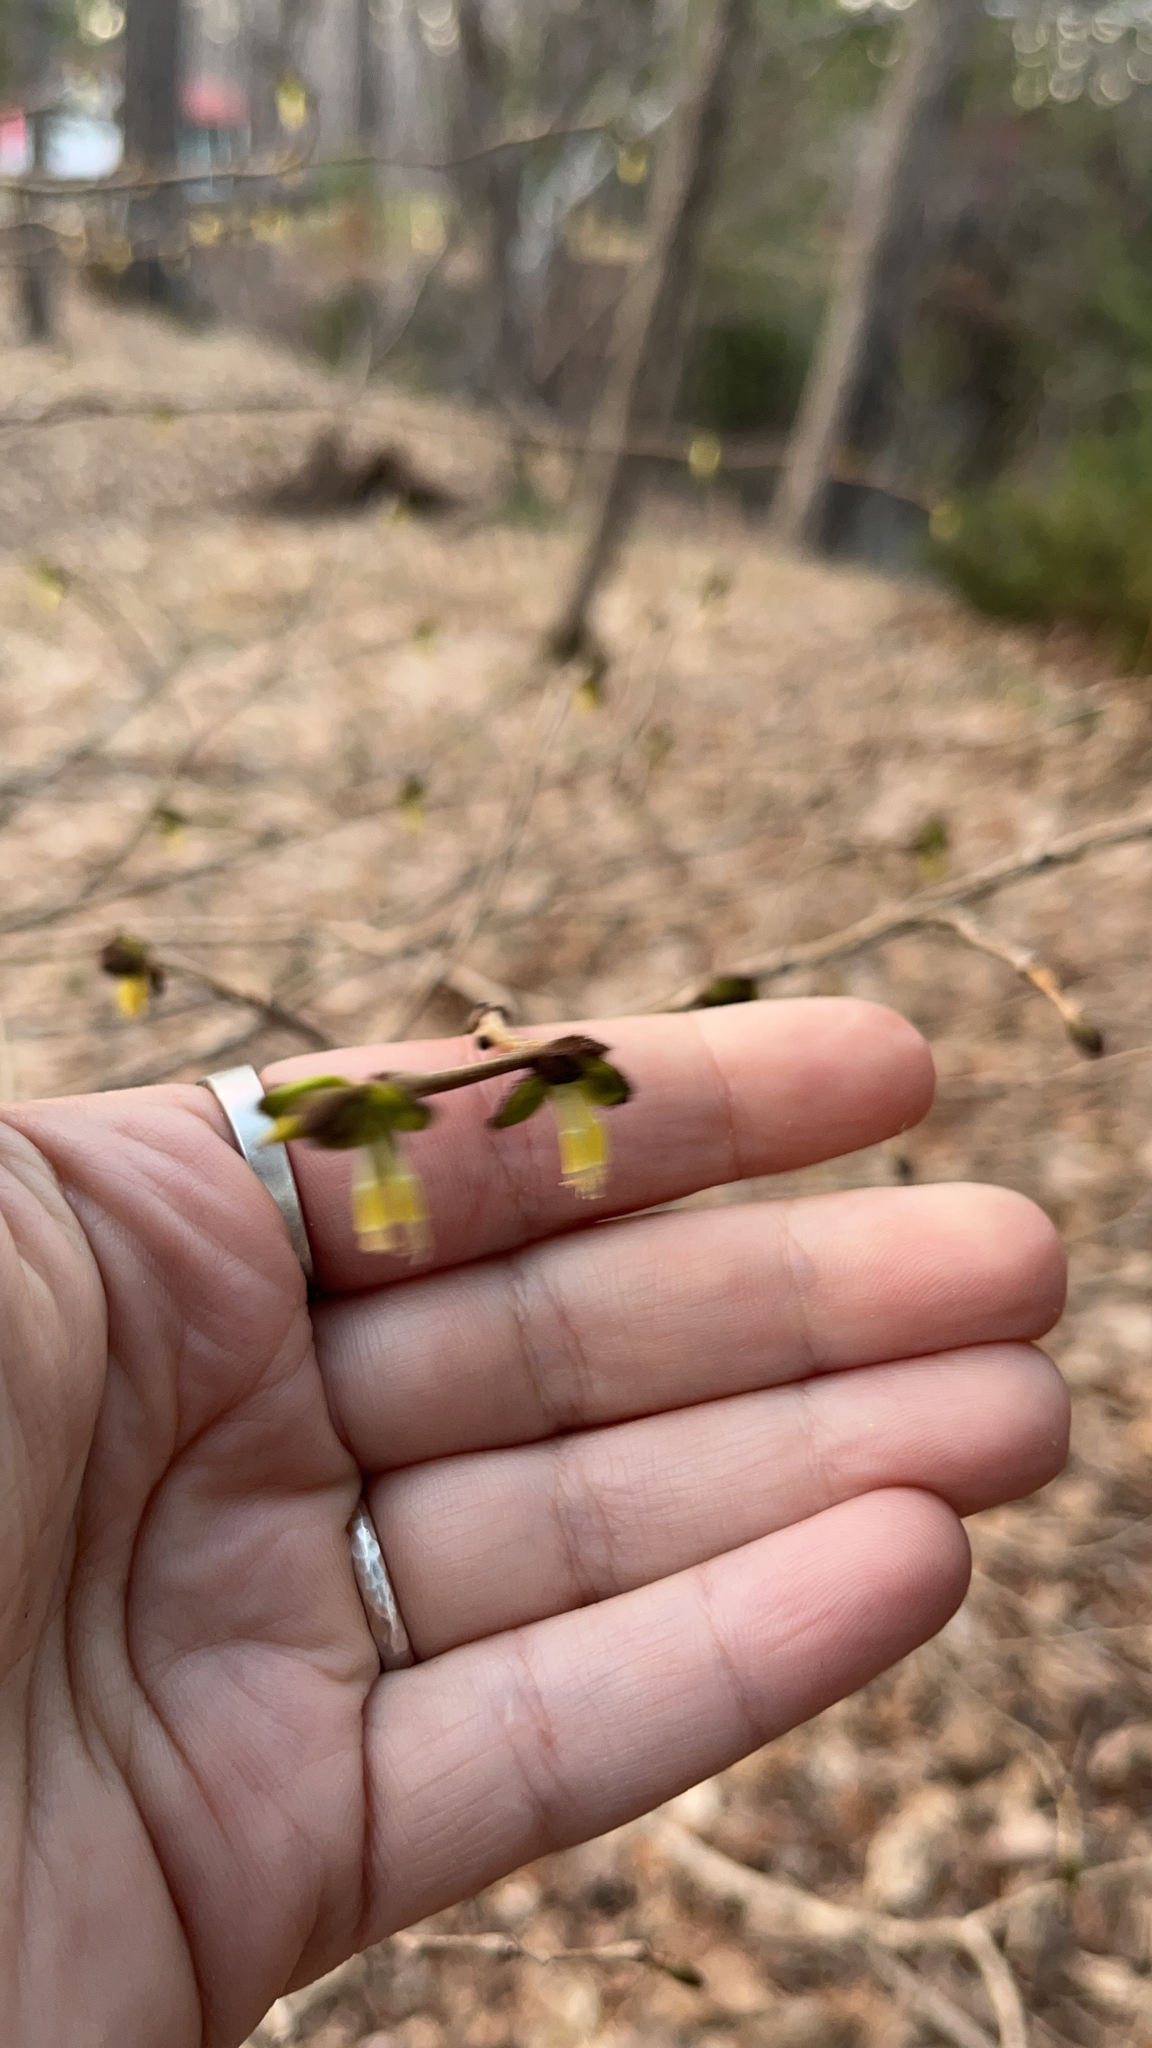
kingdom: Plantae
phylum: Tracheophyta
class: Magnoliopsida
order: Malvales
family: Thymelaeaceae
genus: Dirca
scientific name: Dirca palustris
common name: Leatherwood
